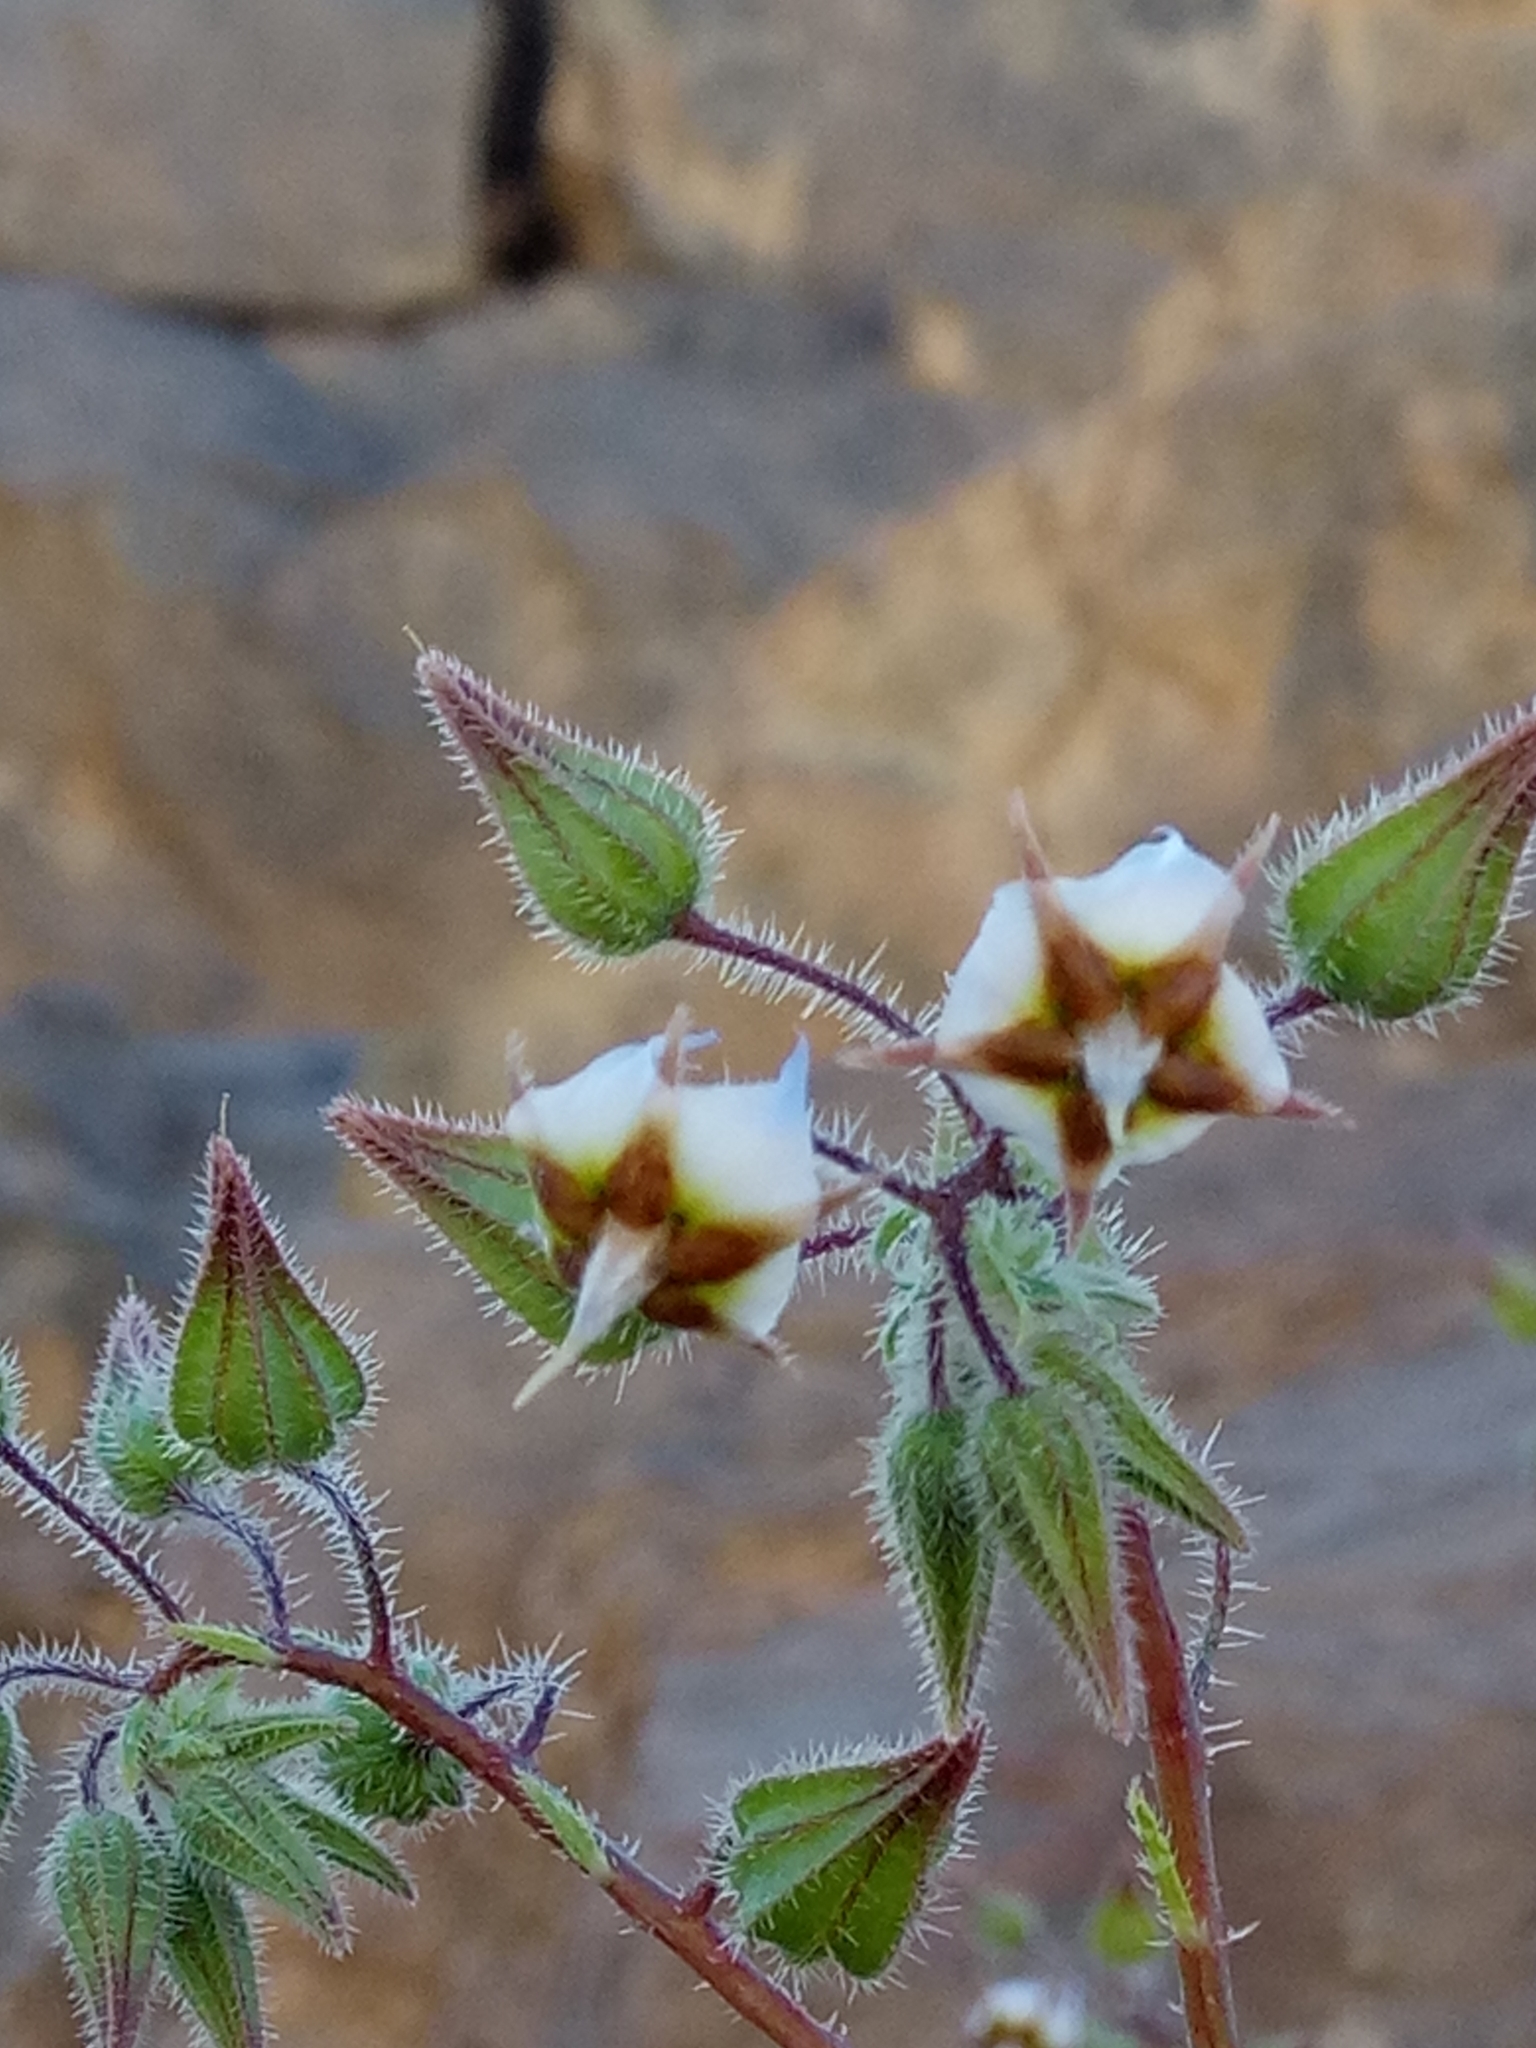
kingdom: Plantae
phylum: Tracheophyta
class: Magnoliopsida
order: Boraginales
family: Boraginaceae
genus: Trichodesma
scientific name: Trichodesma africanum
